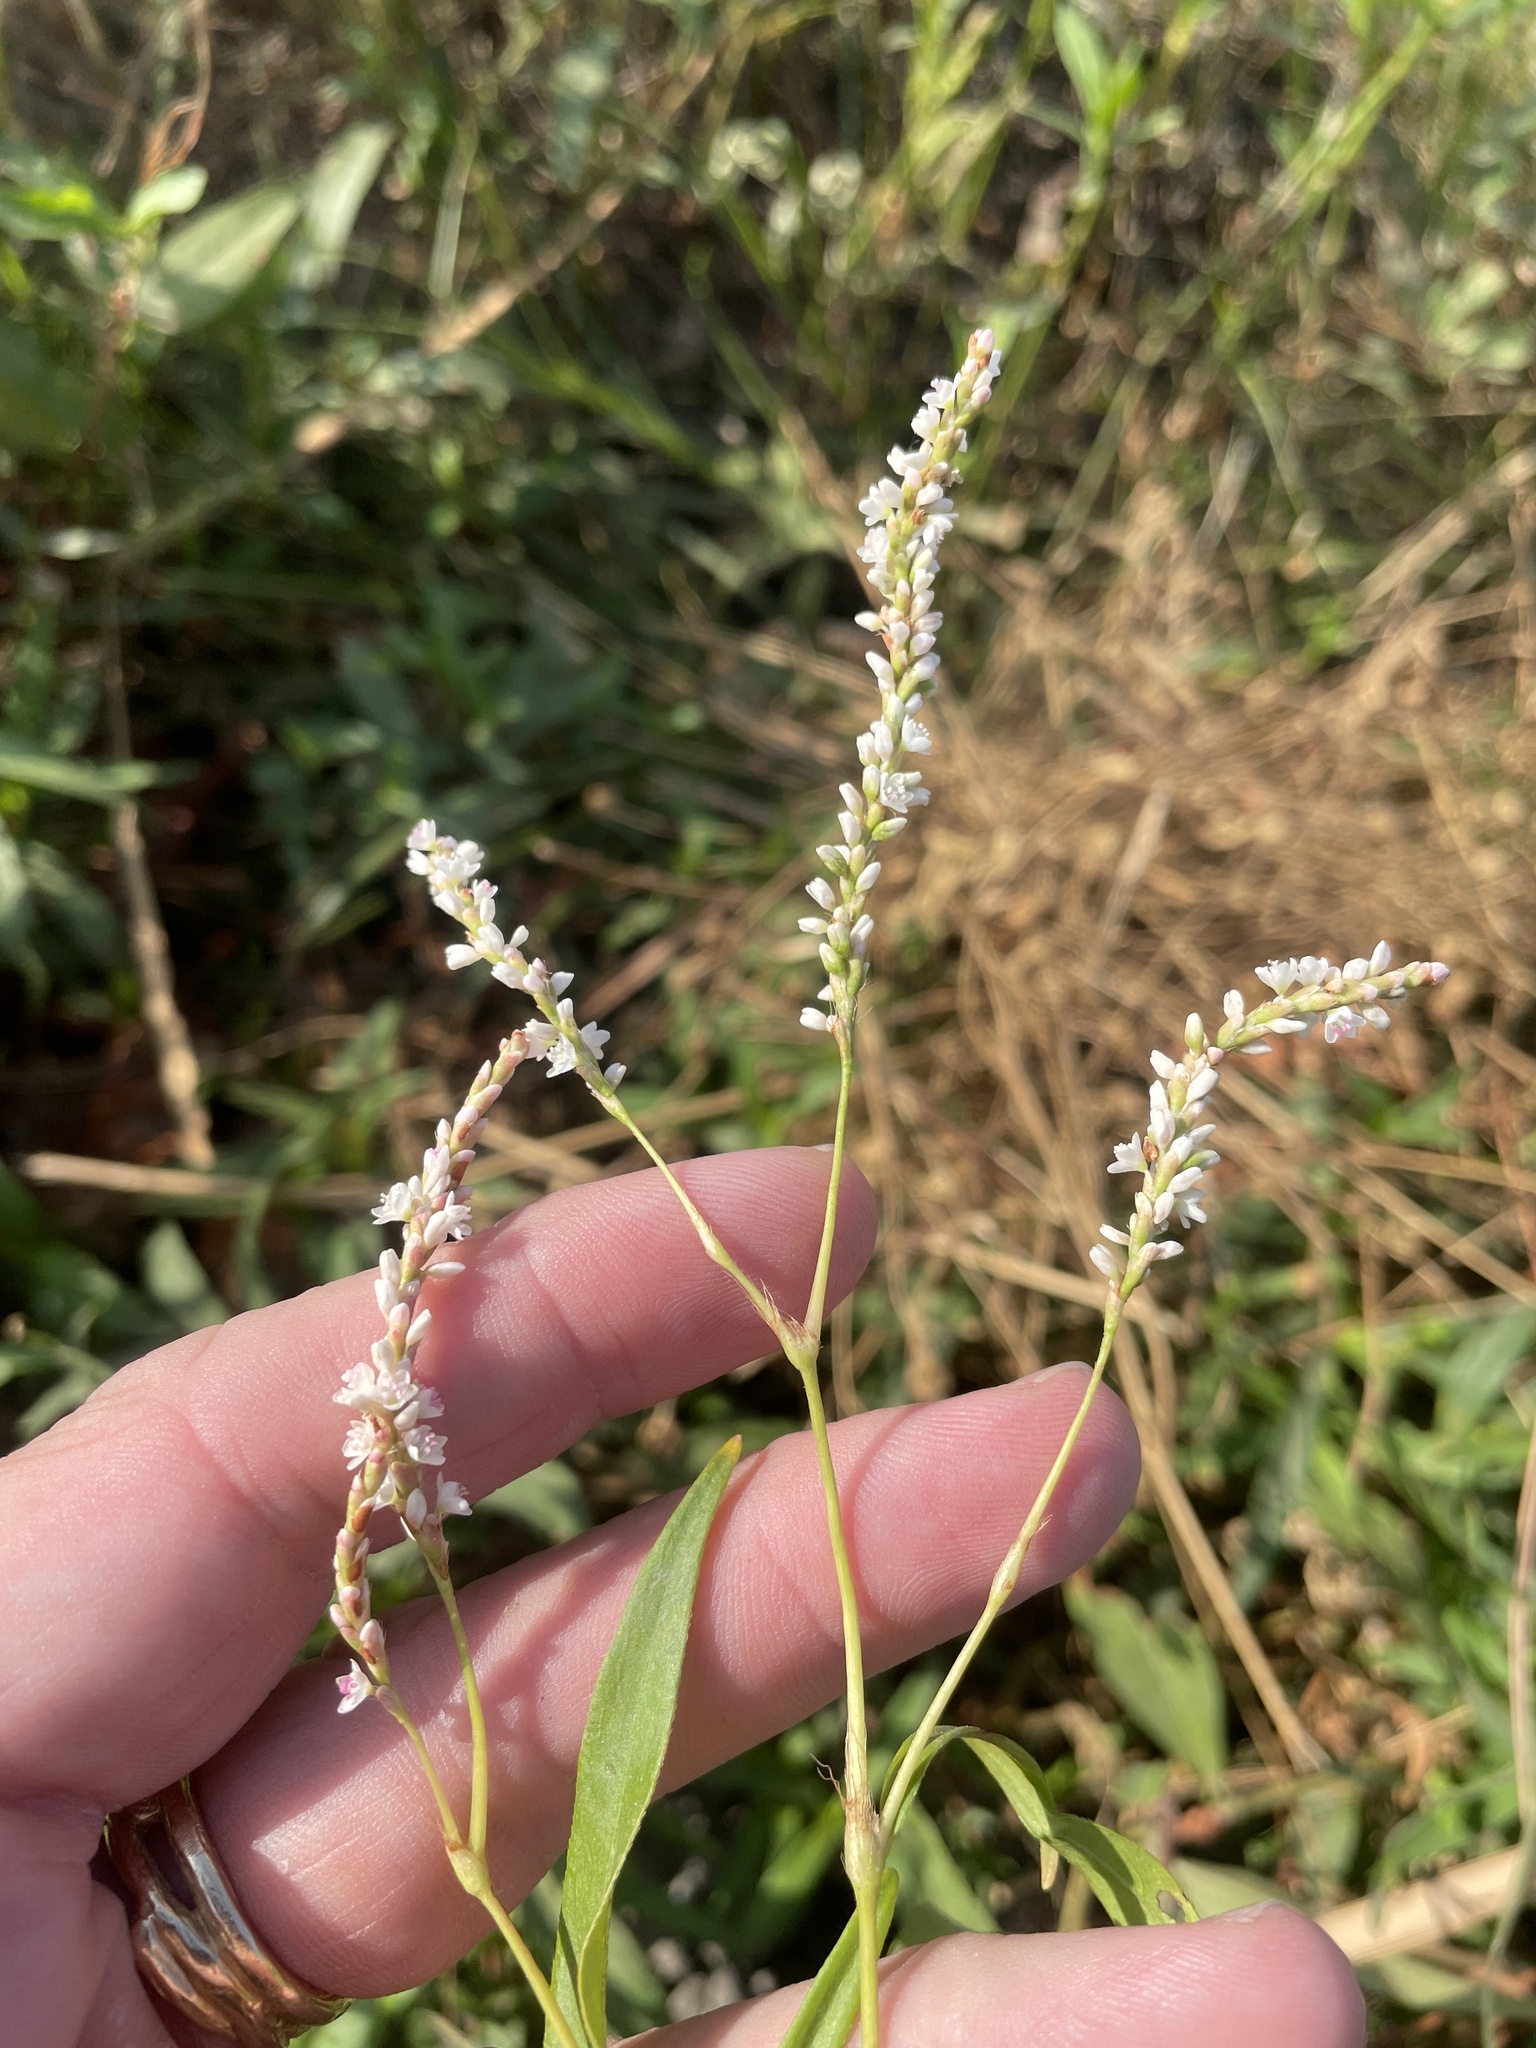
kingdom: Plantae
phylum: Tracheophyta
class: Magnoliopsida
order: Caryophyllales
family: Polygonaceae
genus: Persicaria
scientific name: Persicaria hydropiperoides
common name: Swamp smartweed
